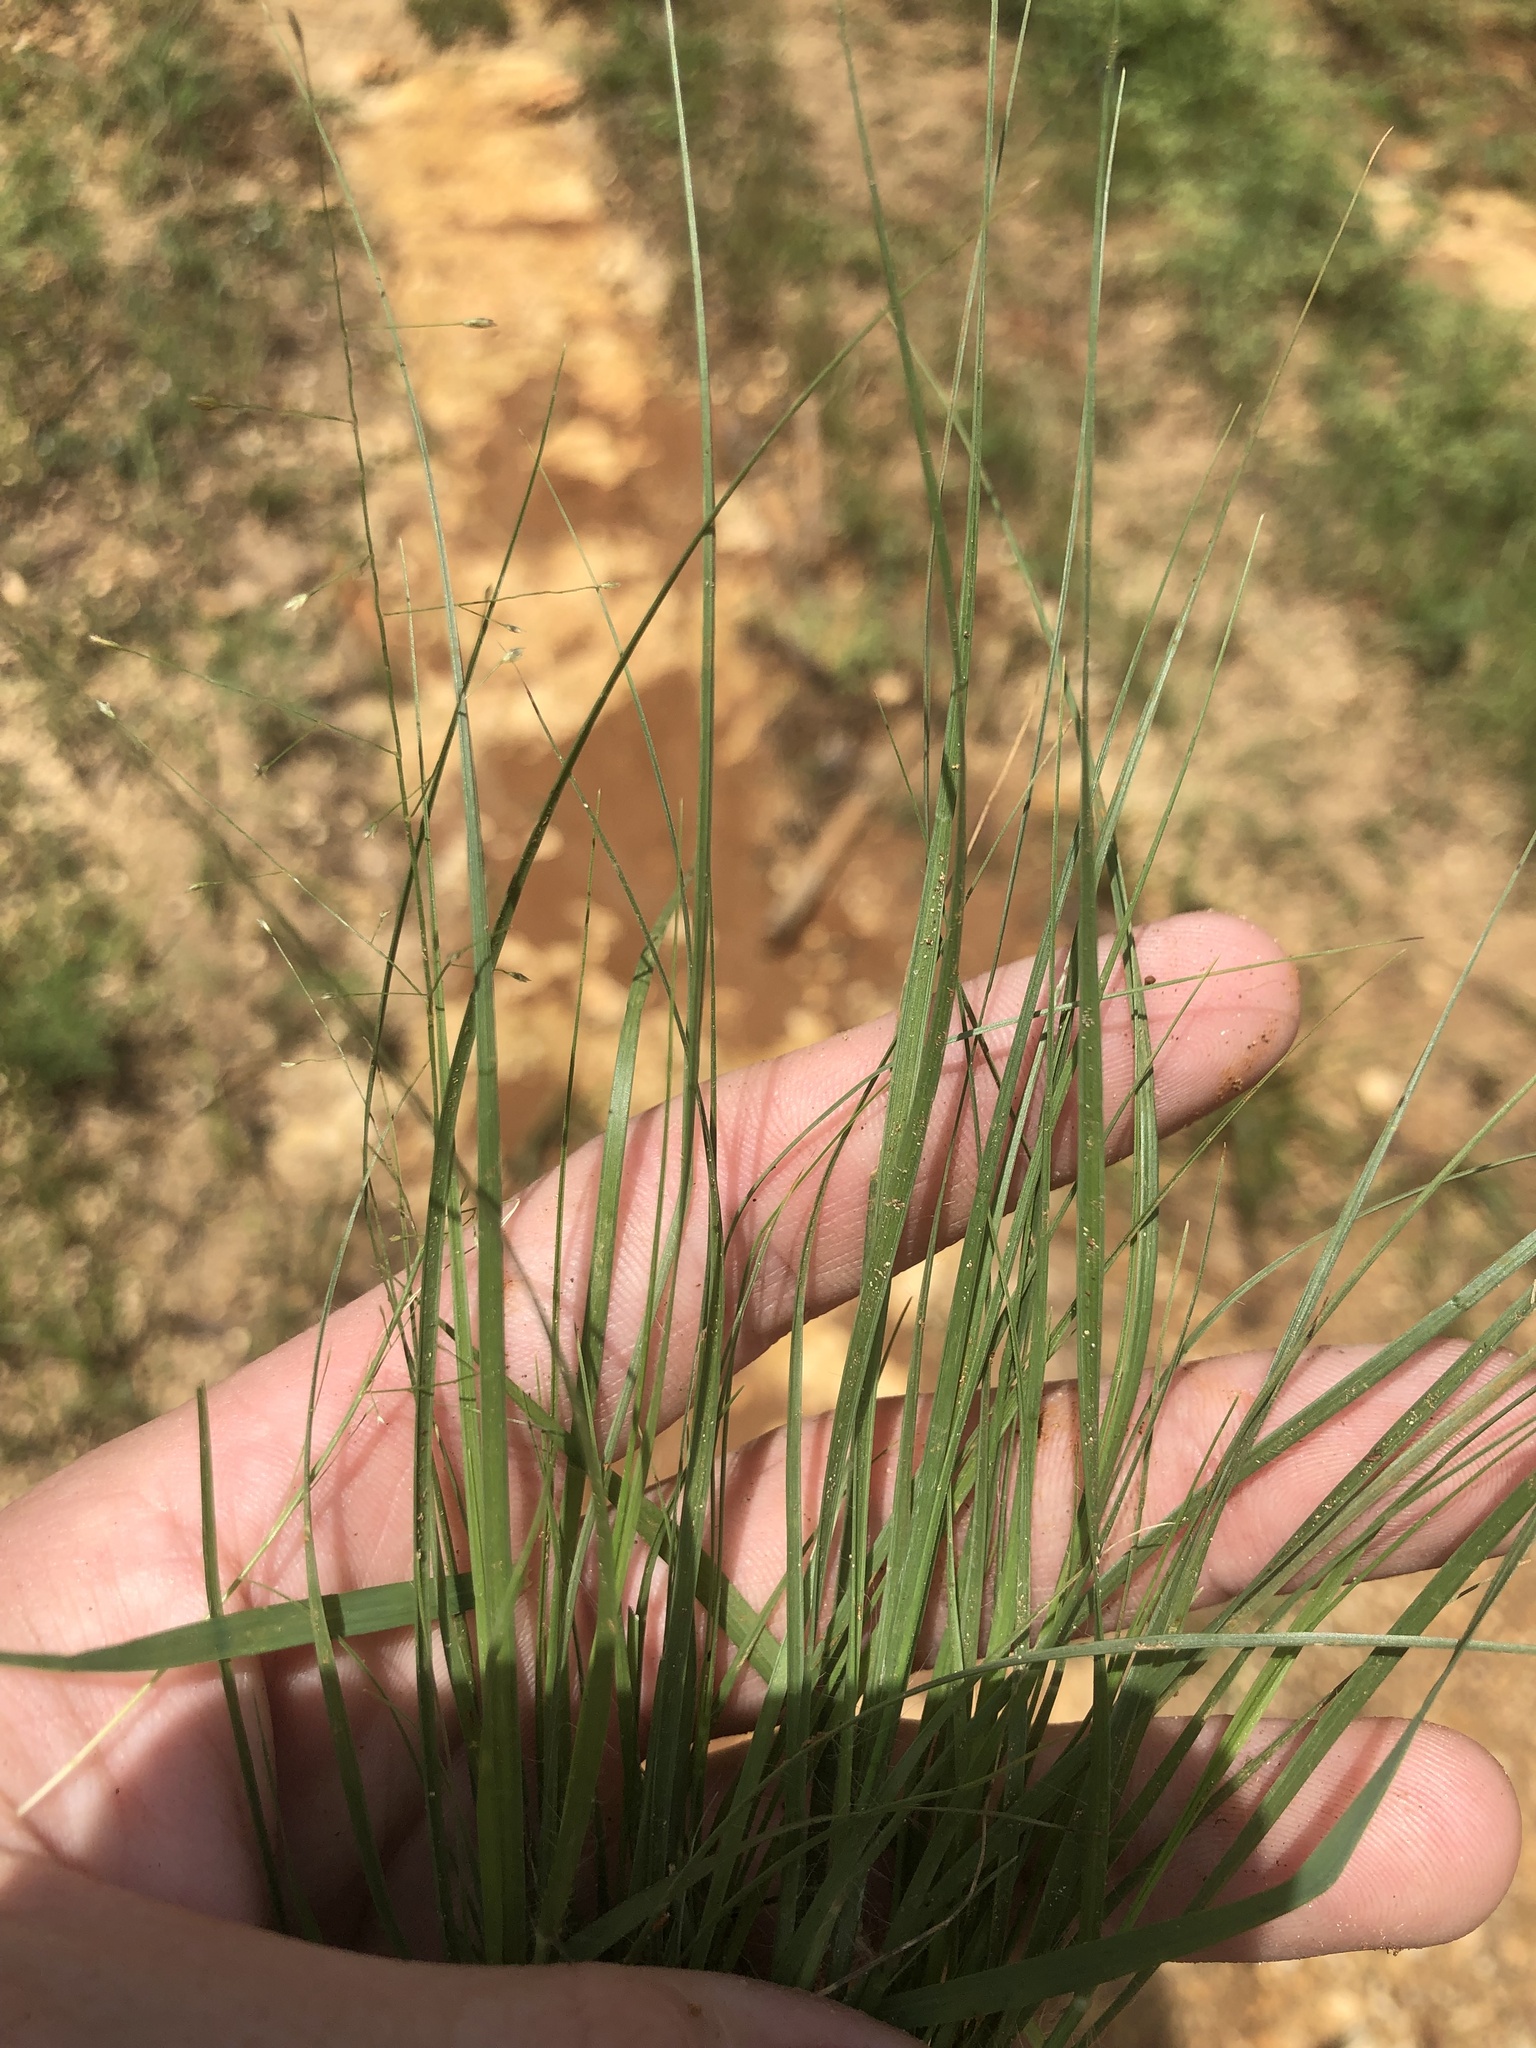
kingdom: Plantae
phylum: Tracheophyta
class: Liliopsida
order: Poales
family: Poaceae
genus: Eragrostis
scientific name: Eragrostis frankii
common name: Frank's lovegrass
